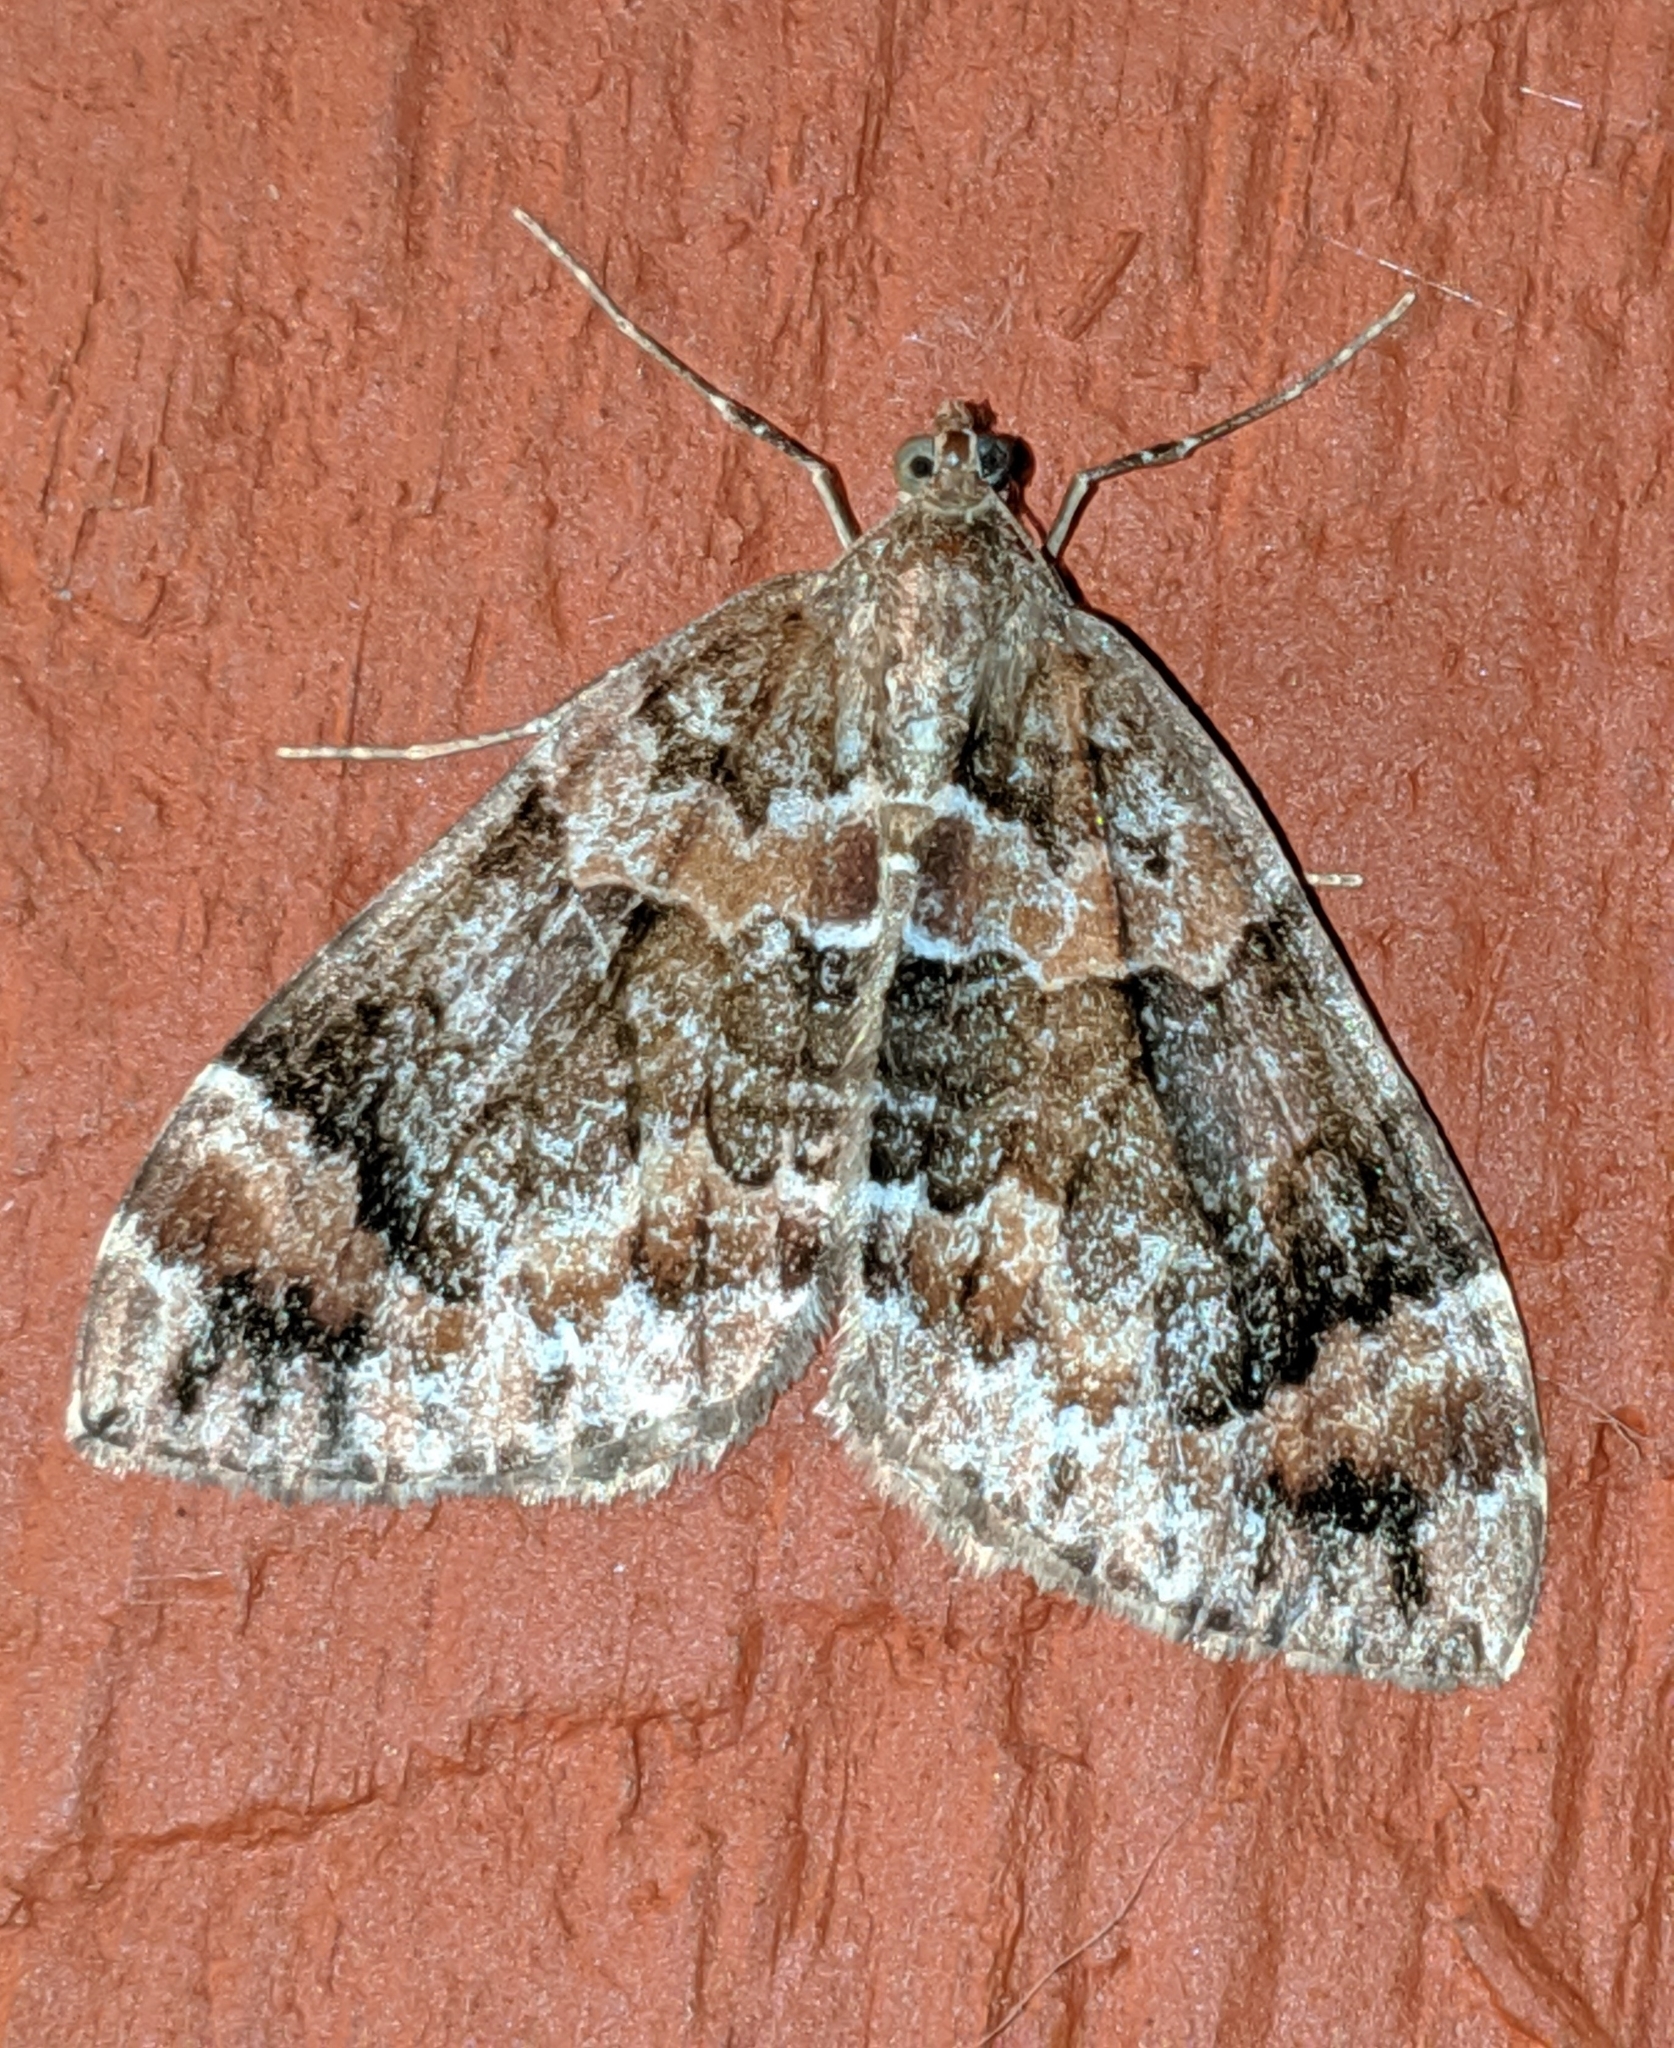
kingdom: Animalia
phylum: Arthropoda
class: Insecta
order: Lepidoptera
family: Geometridae
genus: Dysstroma
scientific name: Dysstroma citrata
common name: Dark marbled carpet
